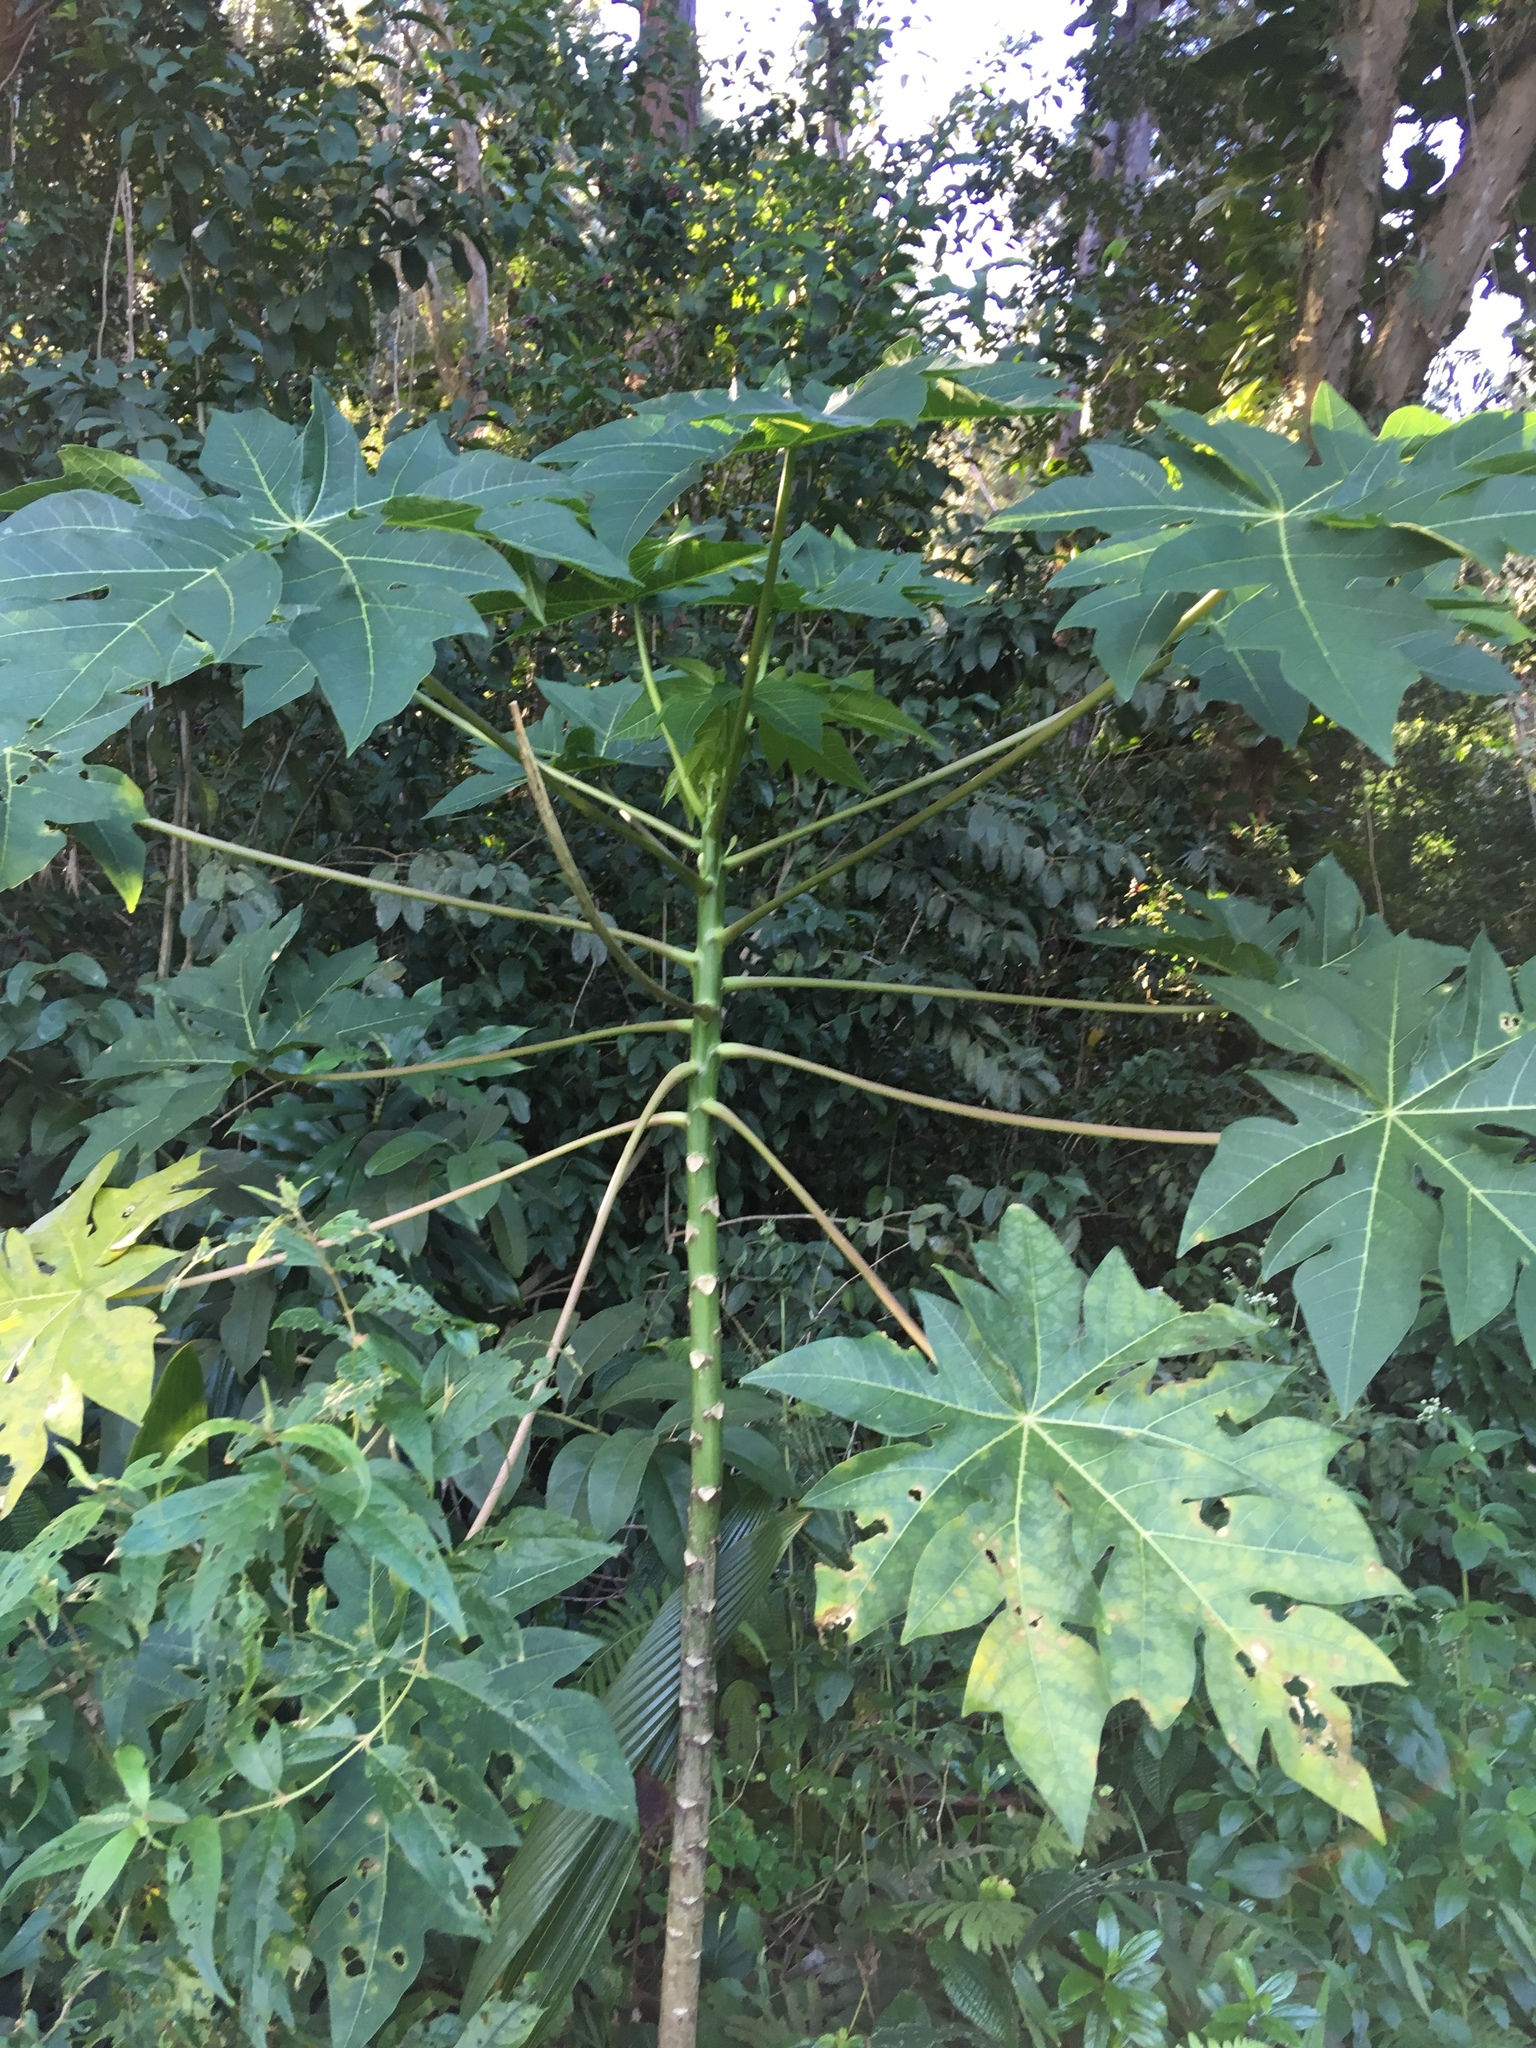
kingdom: Plantae
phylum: Tracheophyta
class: Magnoliopsida
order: Brassicales
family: Caricaceae
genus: Carica
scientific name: Carica papaya
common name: Papaya
